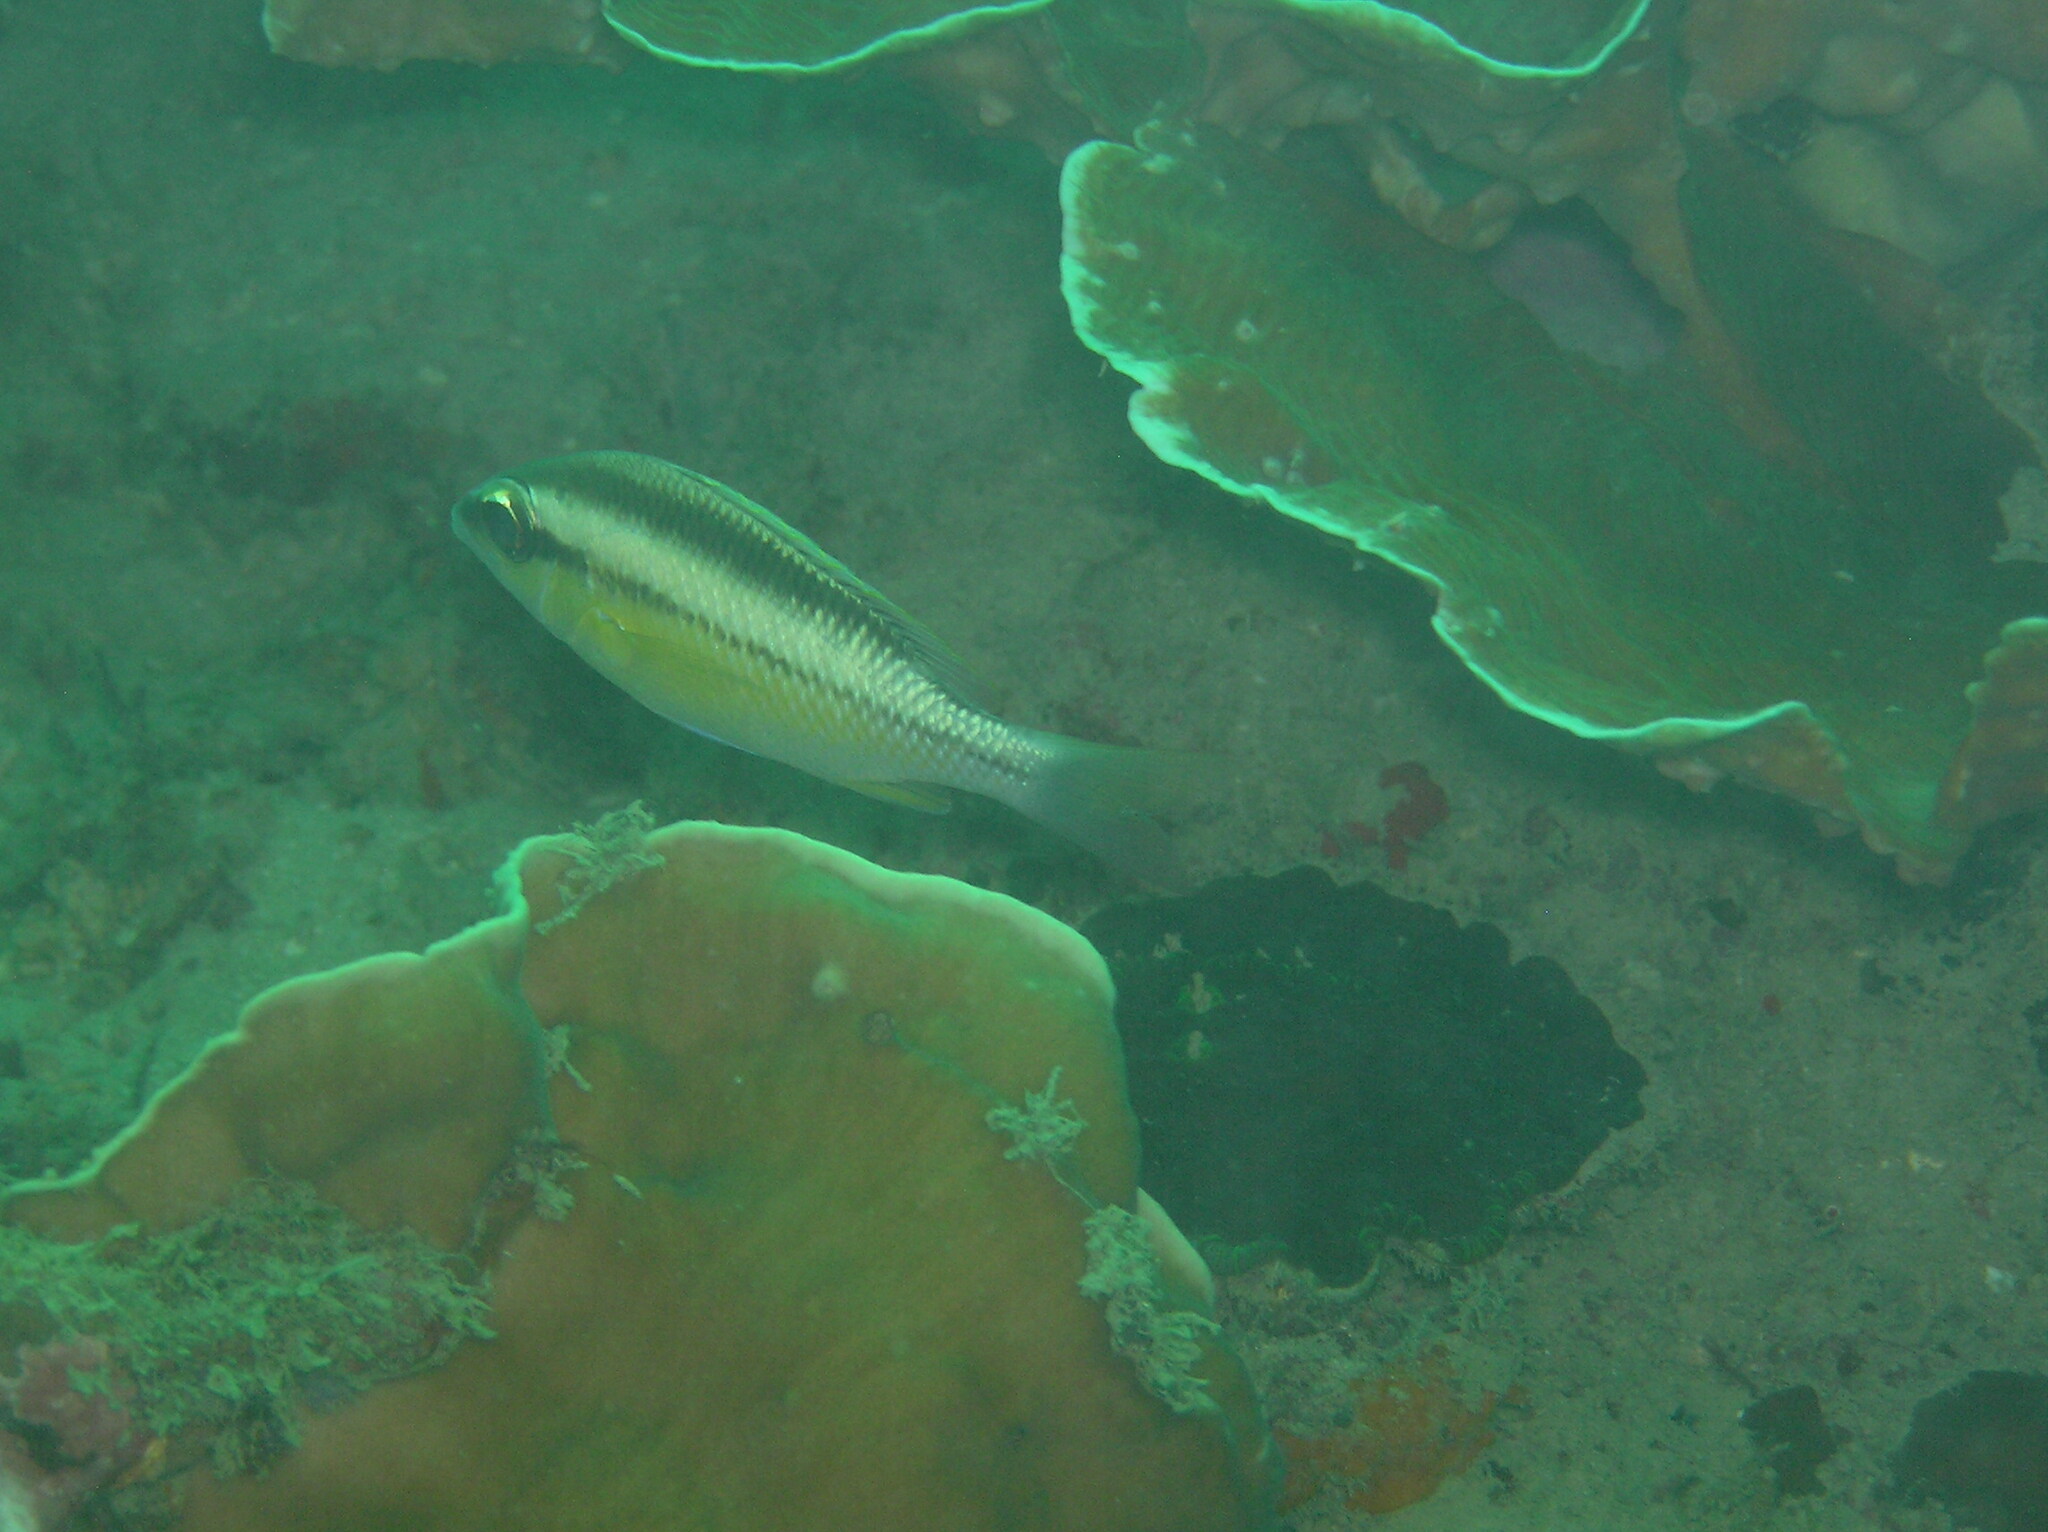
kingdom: Animalia
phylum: Chordata
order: Perciformes
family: Nemipteridae
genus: Scolopsis
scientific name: Scolopsis margaritifera
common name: Pearly monocle bream
